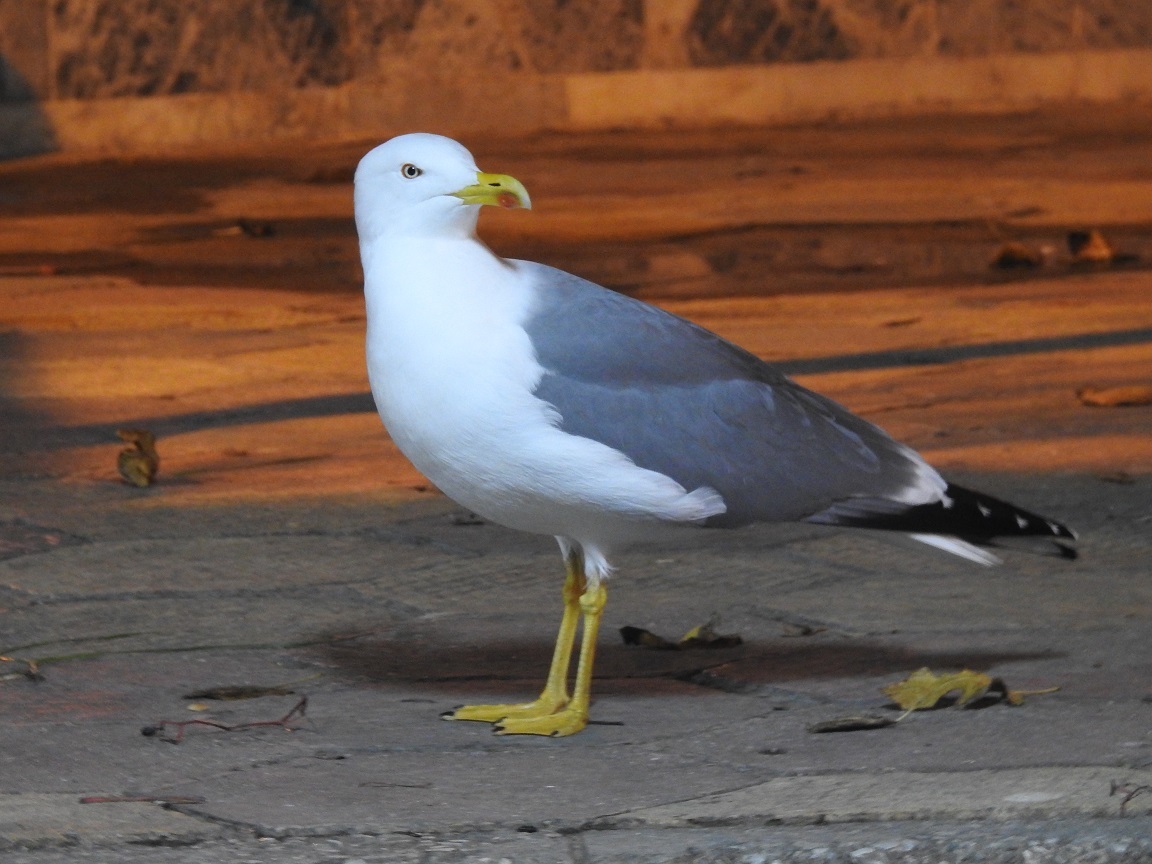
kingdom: Animalia
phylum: Chordata
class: Aves
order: Charadriiformes
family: Laridae
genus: Larus
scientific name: Larus michahellis
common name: Yellow-legged gull
